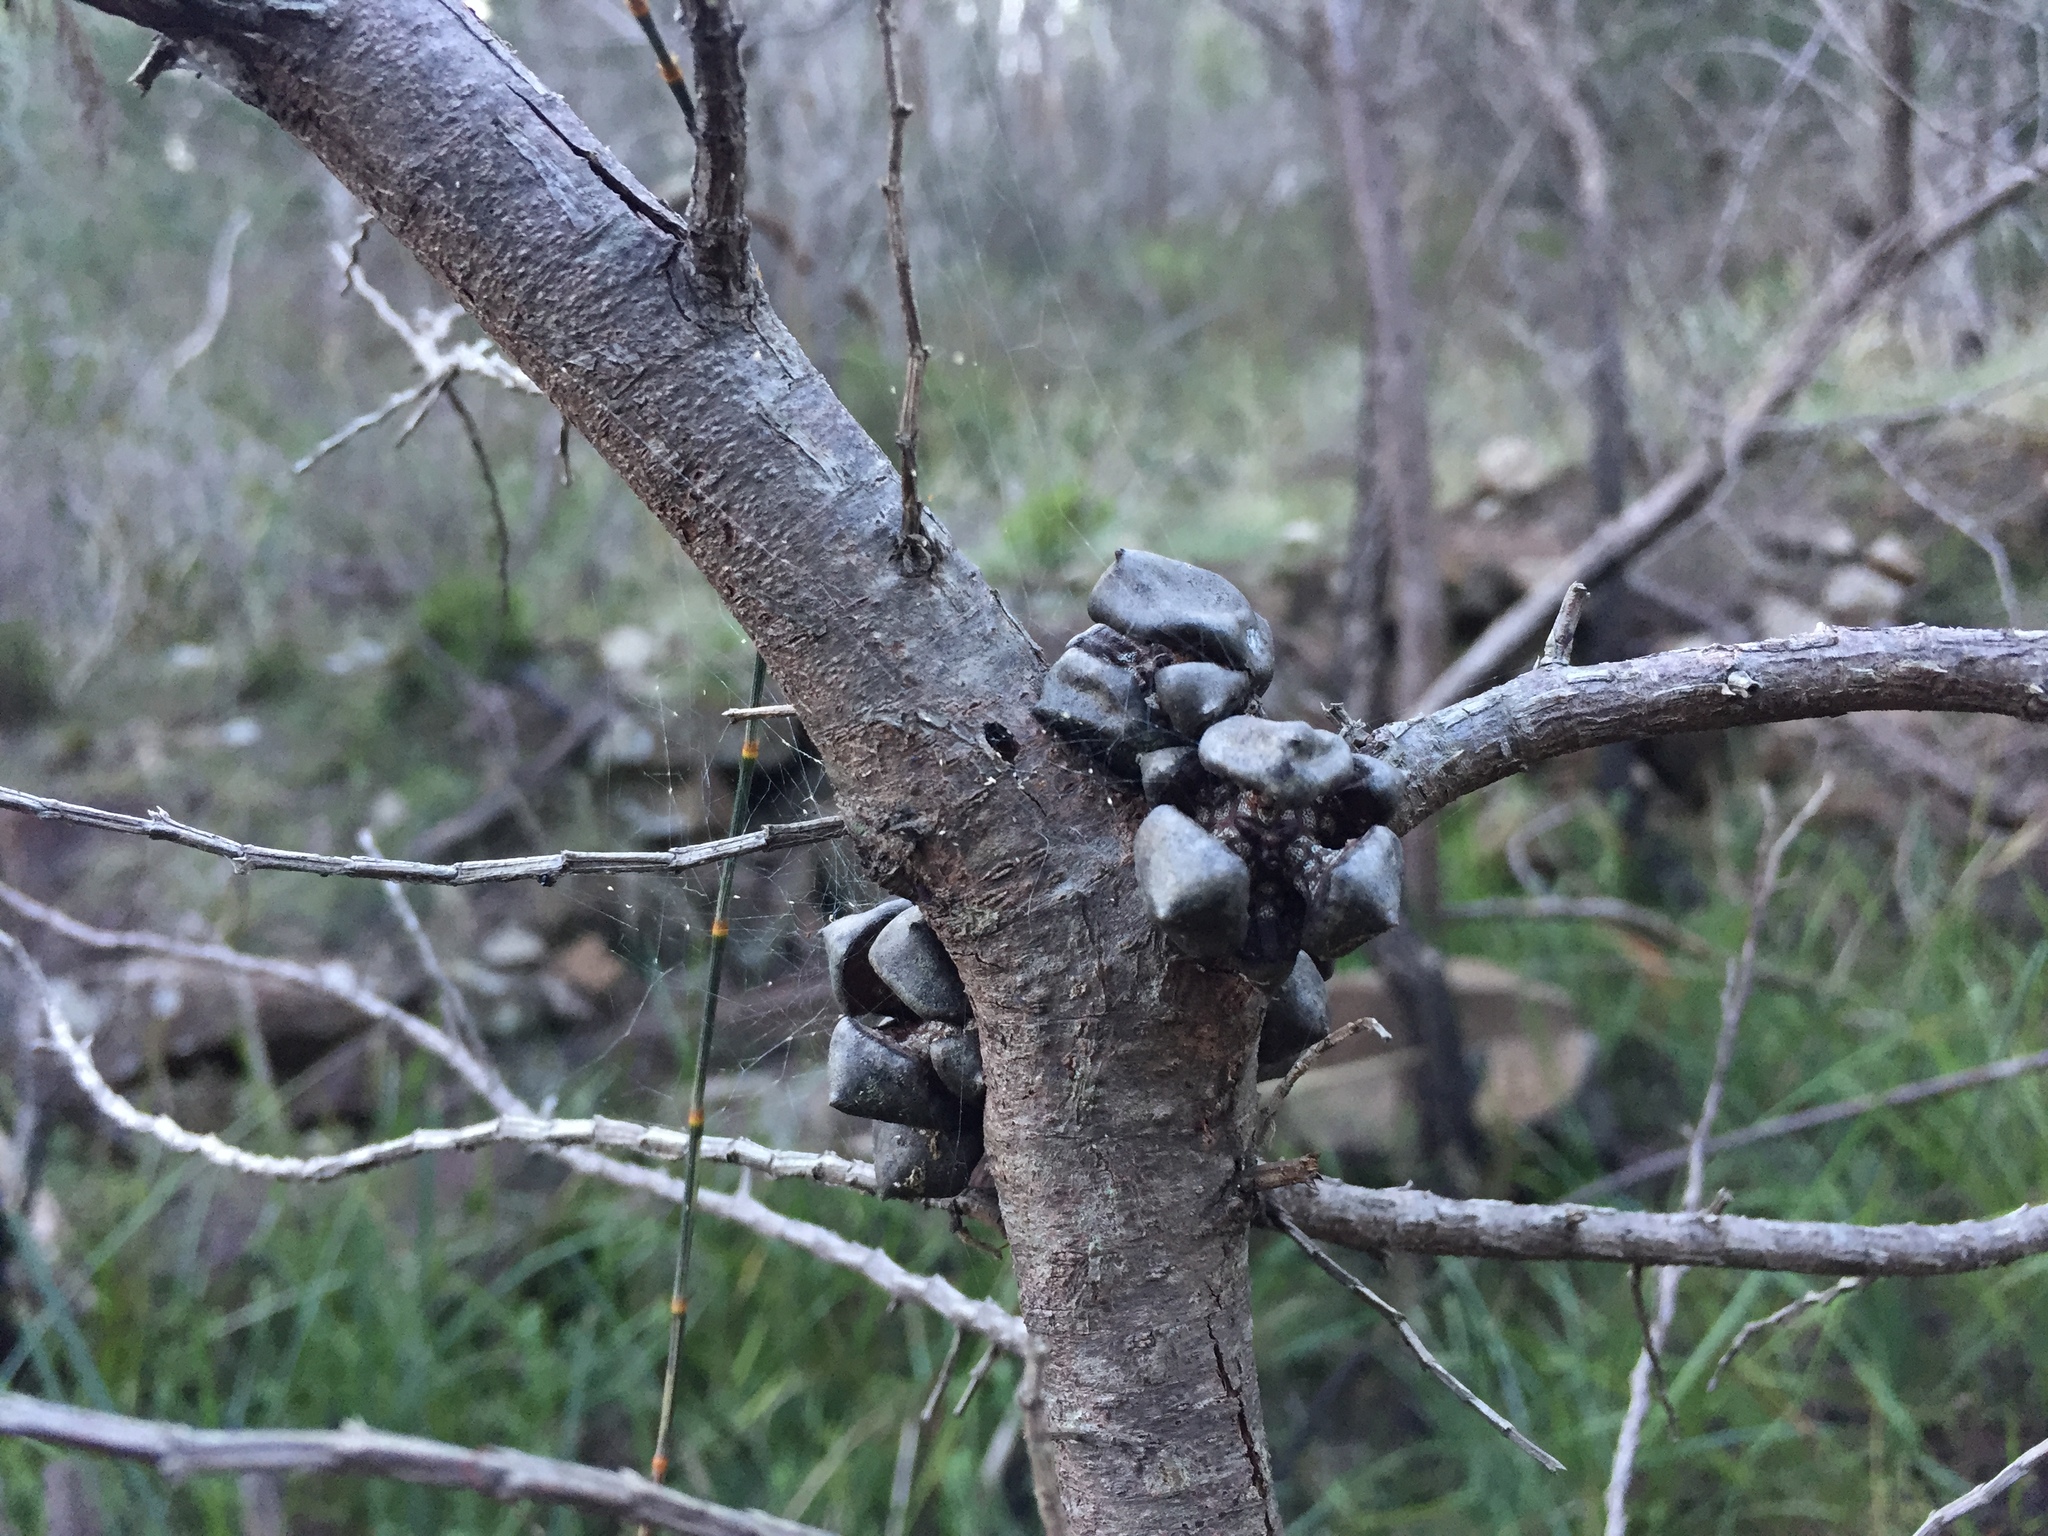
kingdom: Plantae
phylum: Tracheophyta
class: Pinopsida
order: Pinales
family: Cupressaceae
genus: Callitris
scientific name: Callitris rhomboidea
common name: Illawara mountain pine
